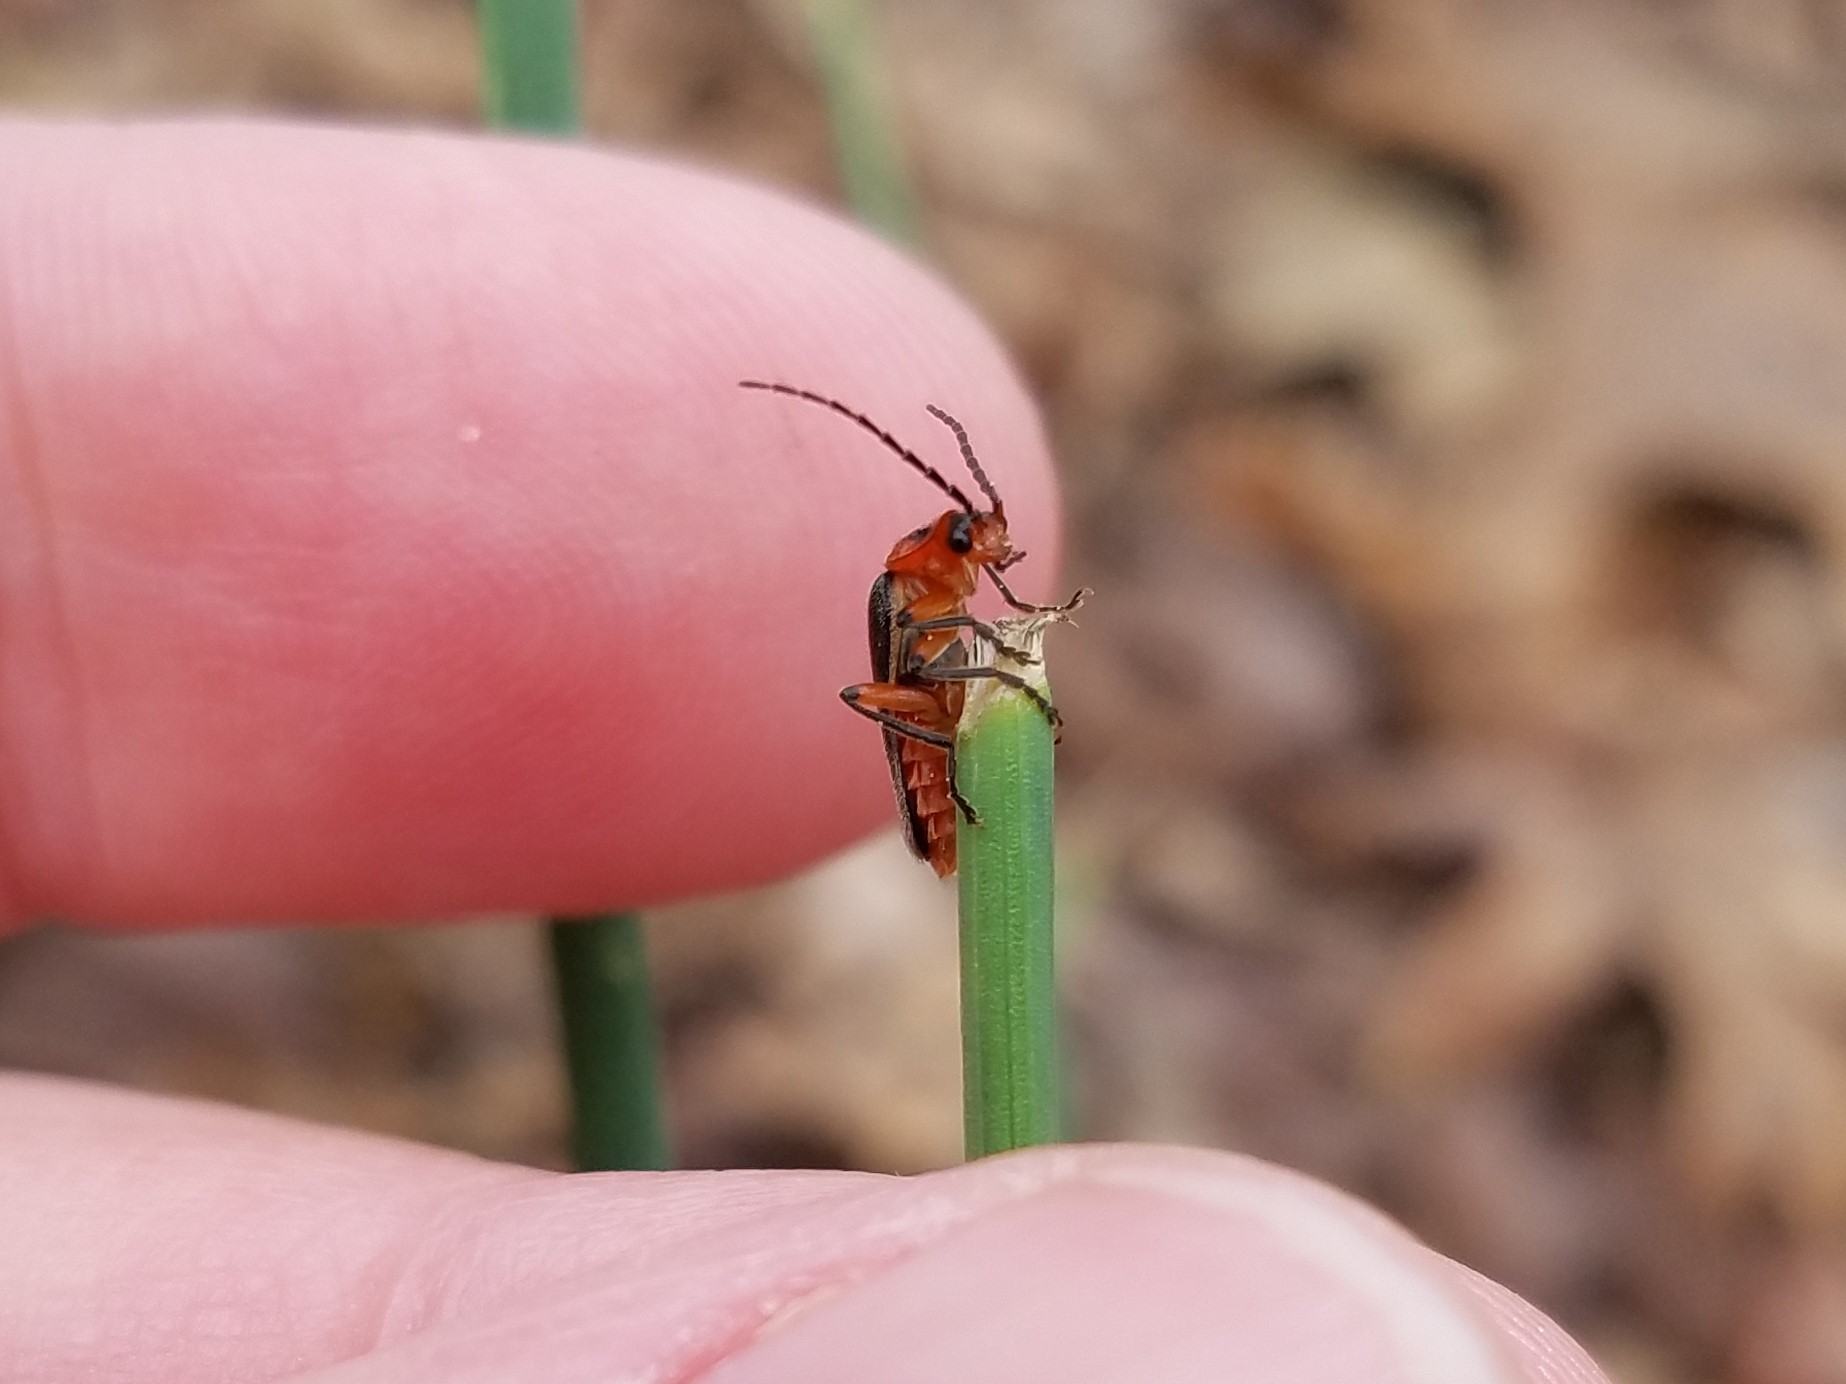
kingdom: Animalia
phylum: Arthropoda
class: Insecta
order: Coleoptera
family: Cantharidae
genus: Atalantycha
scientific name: Atalantycha bilineata
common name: Two-lined leatherwing
